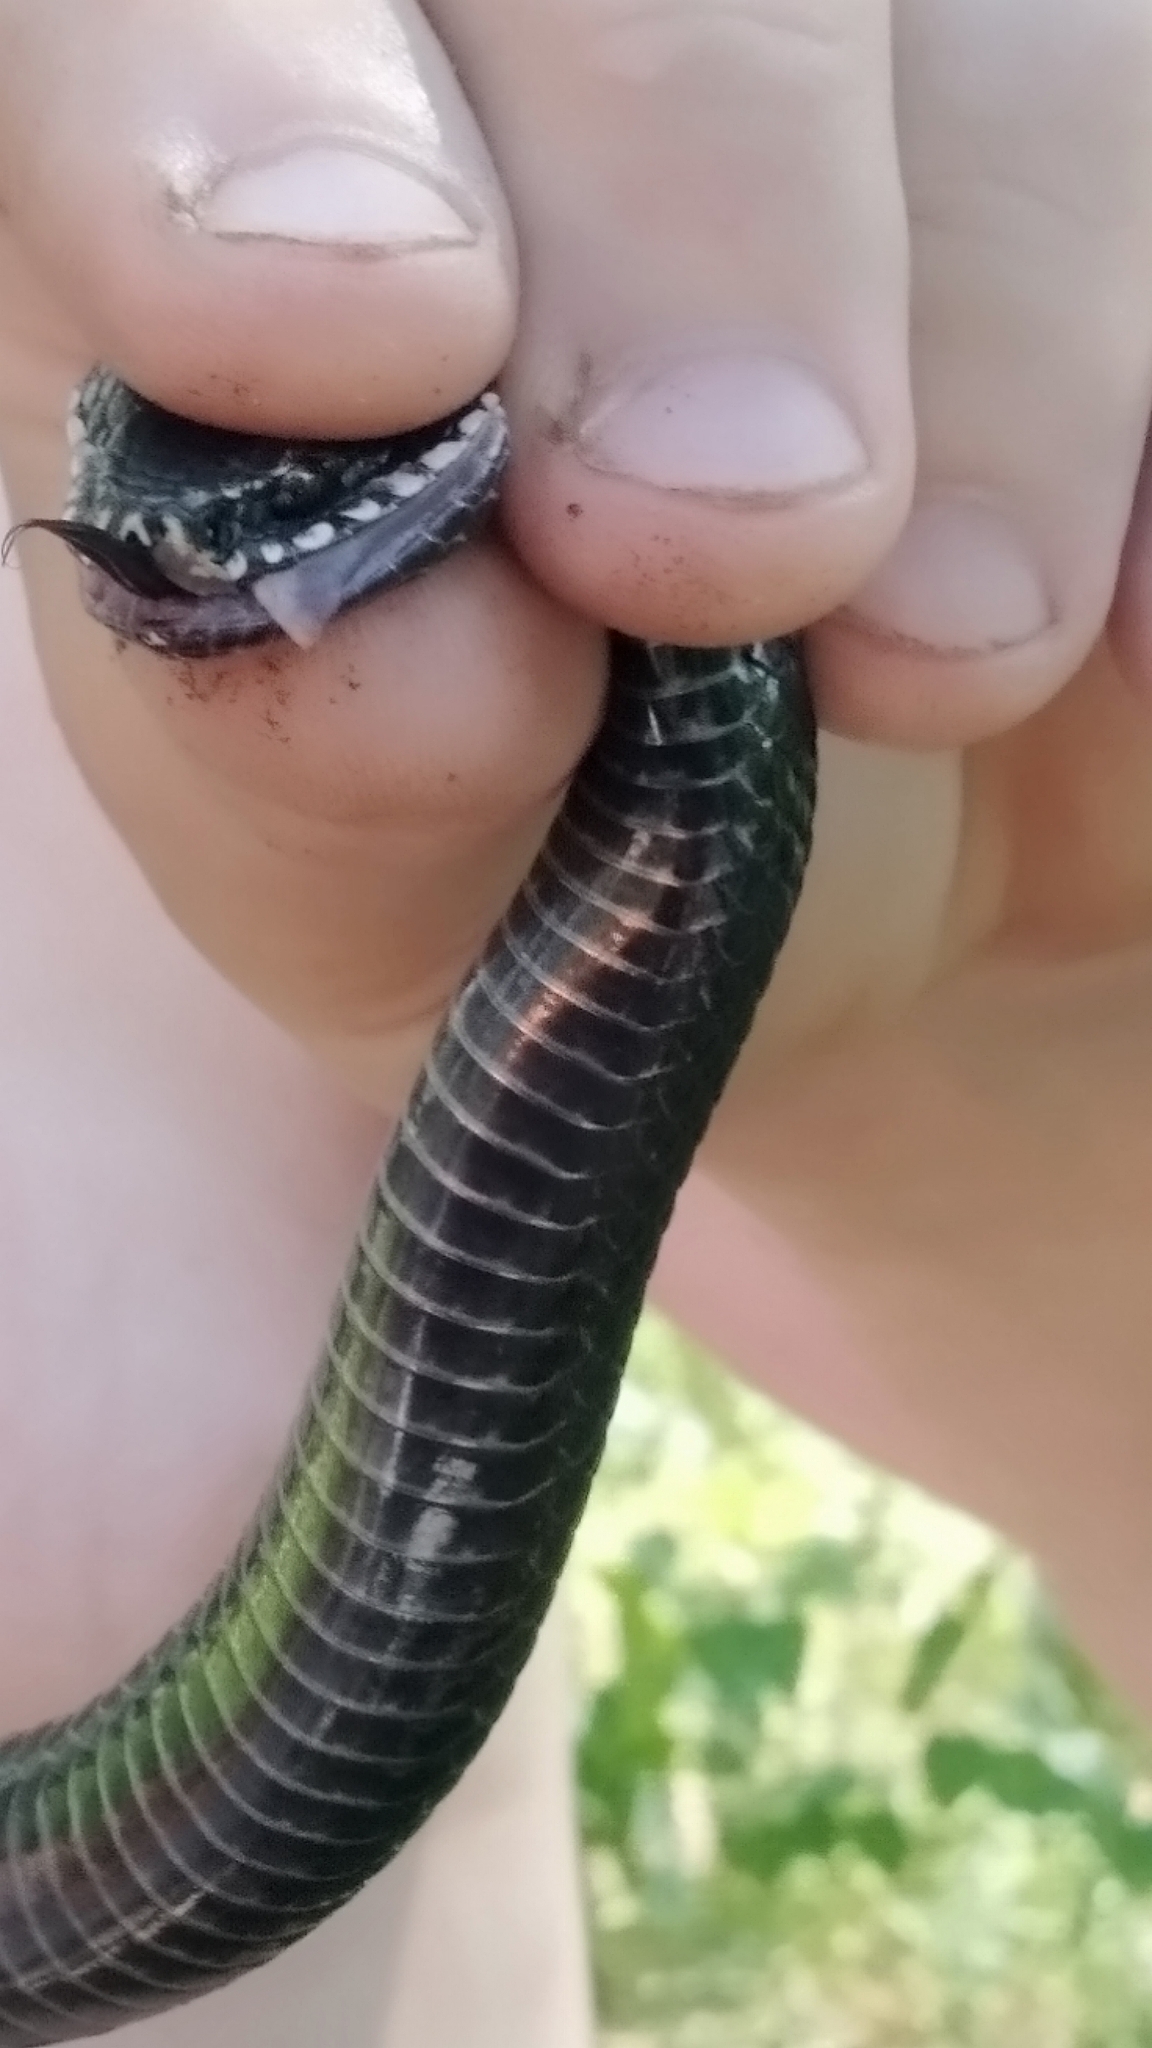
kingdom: Animalia
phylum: Chordata
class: Squamata
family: Viperidae
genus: Vipera
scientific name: Vipera berus
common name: Adder
